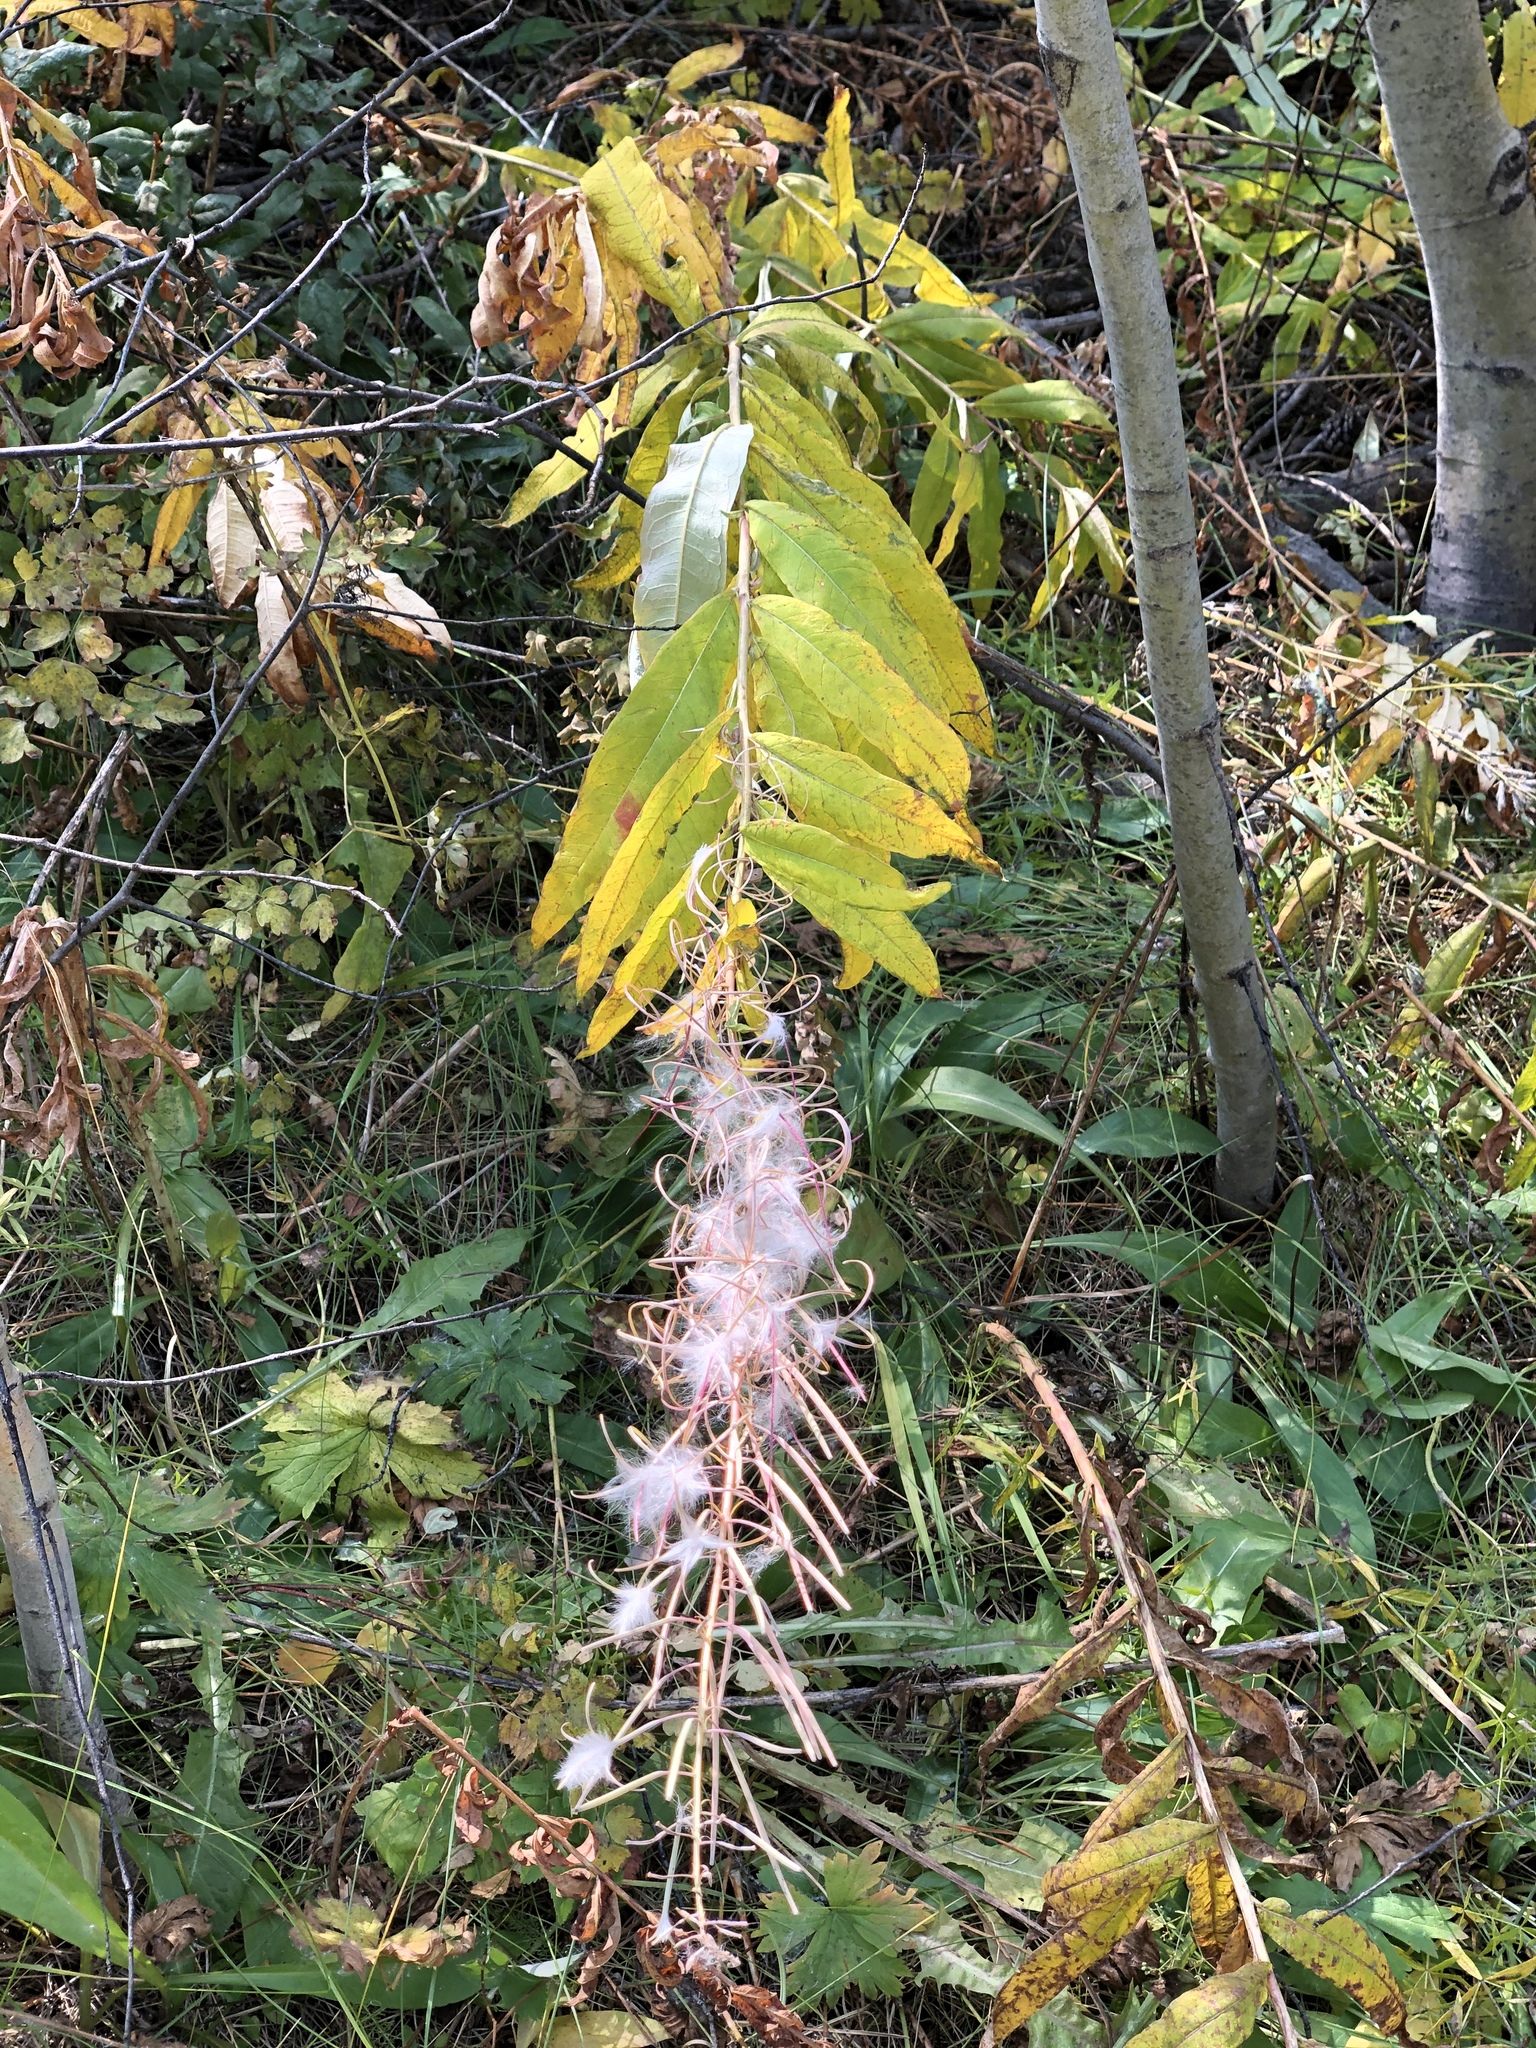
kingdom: Plantae
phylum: Tracheophyta
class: Magnoliopsida
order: Myrtales
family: Onagraceae
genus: Chamaenerion
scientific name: Chamaenerion angustifolium
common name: Fireweed
